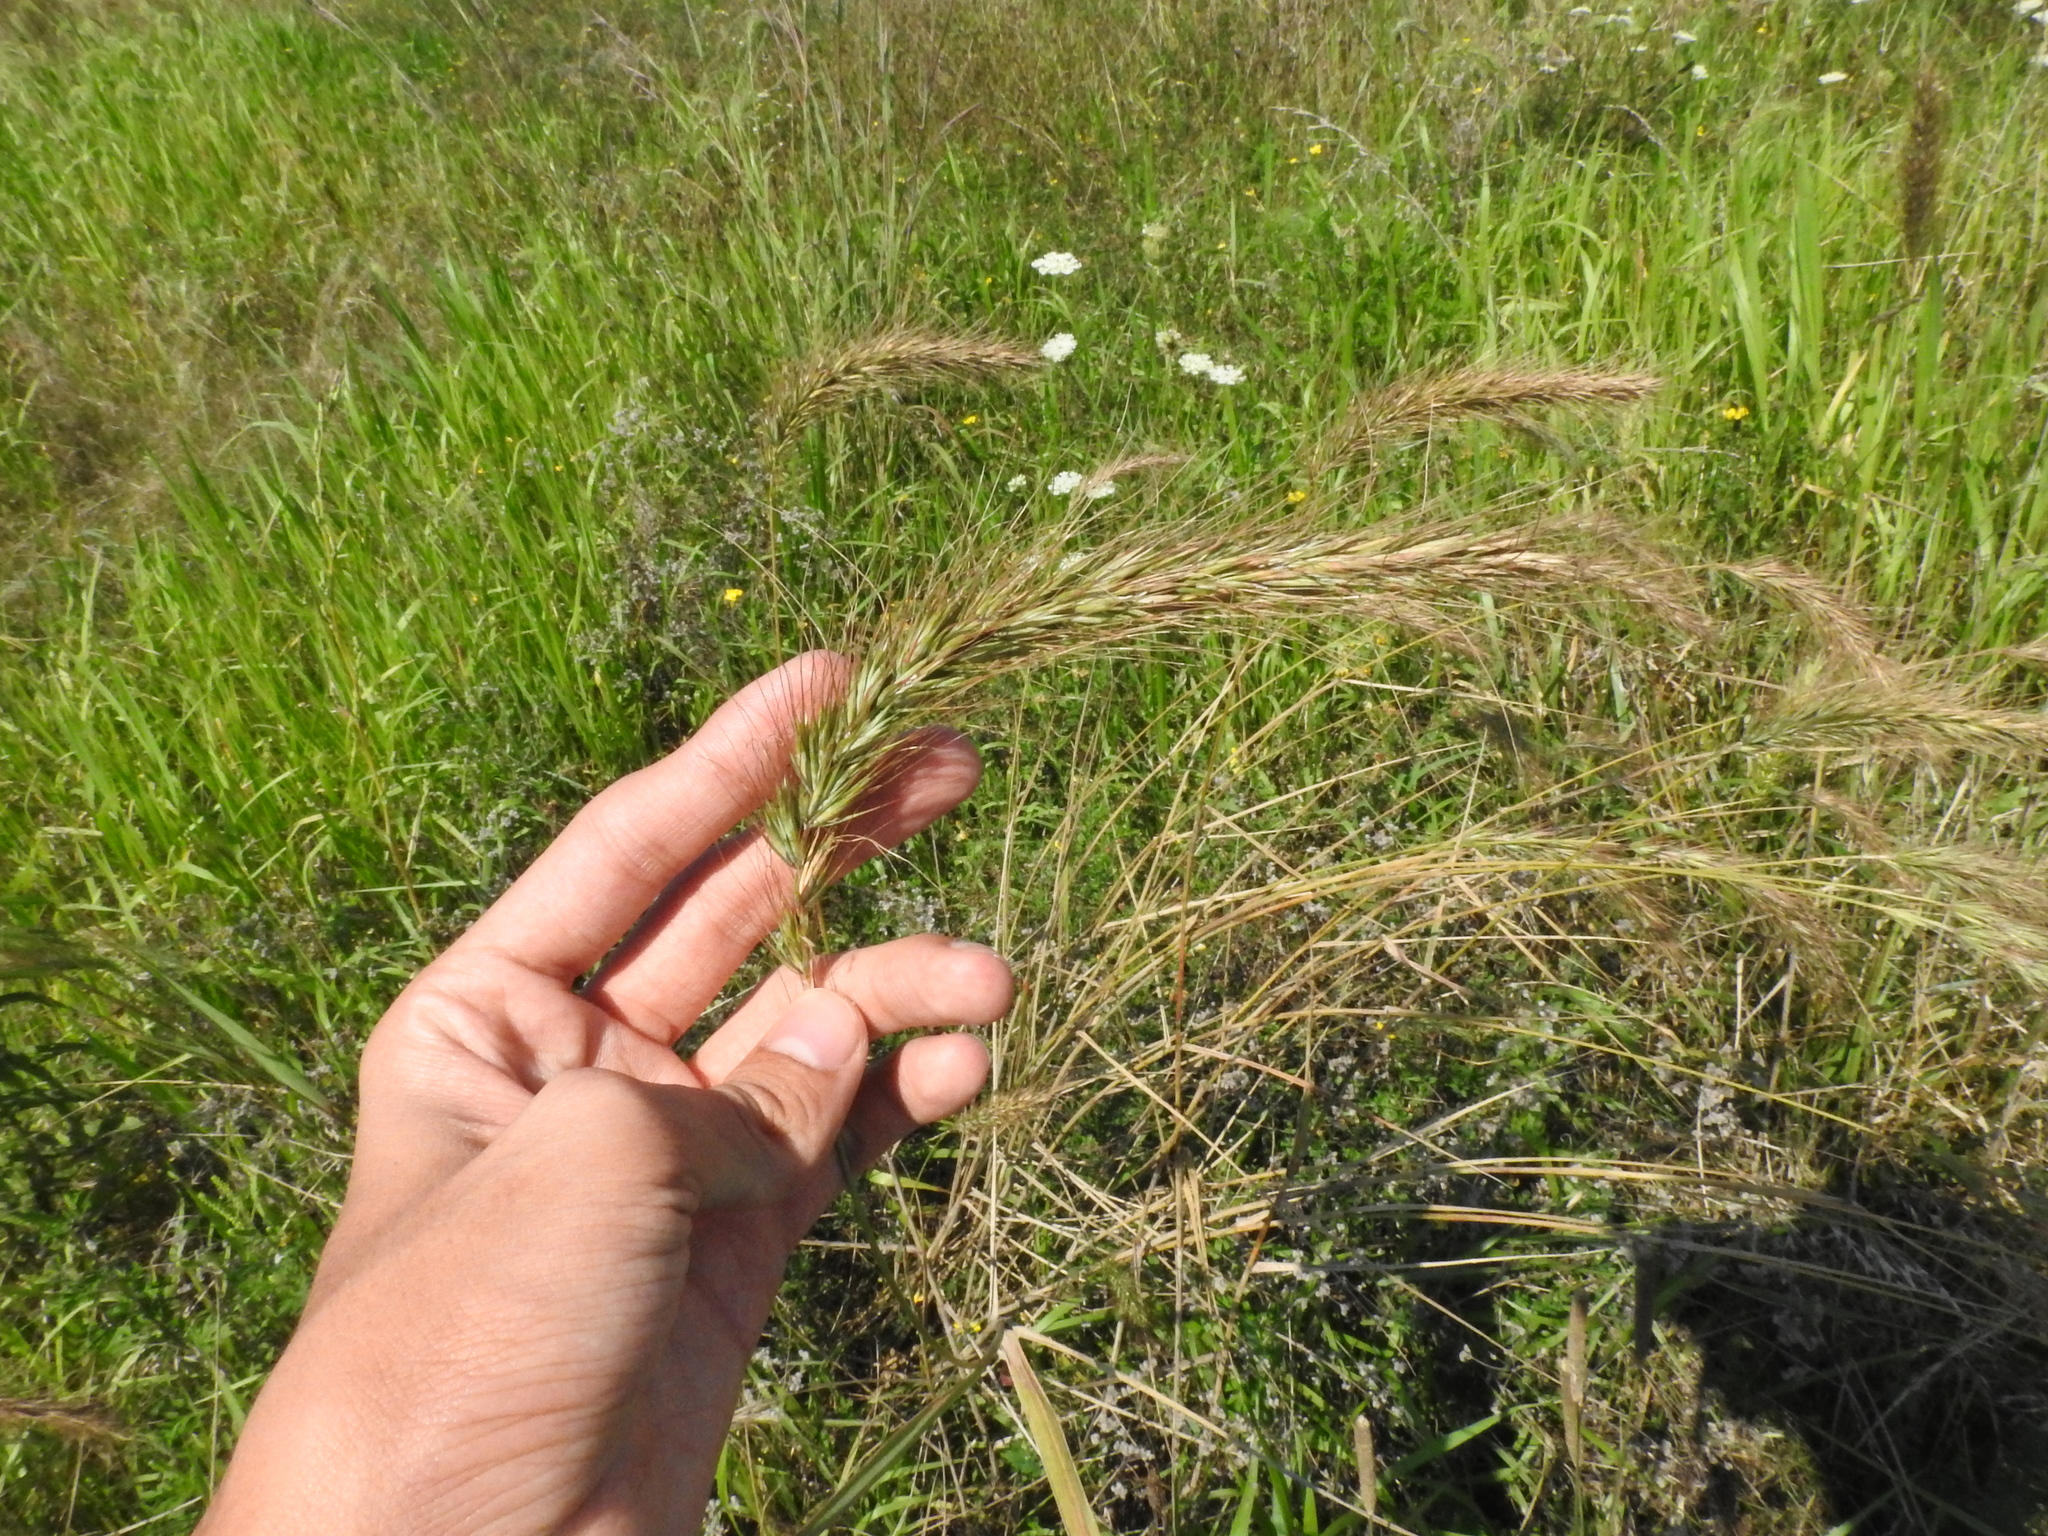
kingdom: Plantae
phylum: Tracheophyta
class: Liliopsida
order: Poales
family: Poaceae
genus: Elymus
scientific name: Elymus canadensis
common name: Canada wild rye
